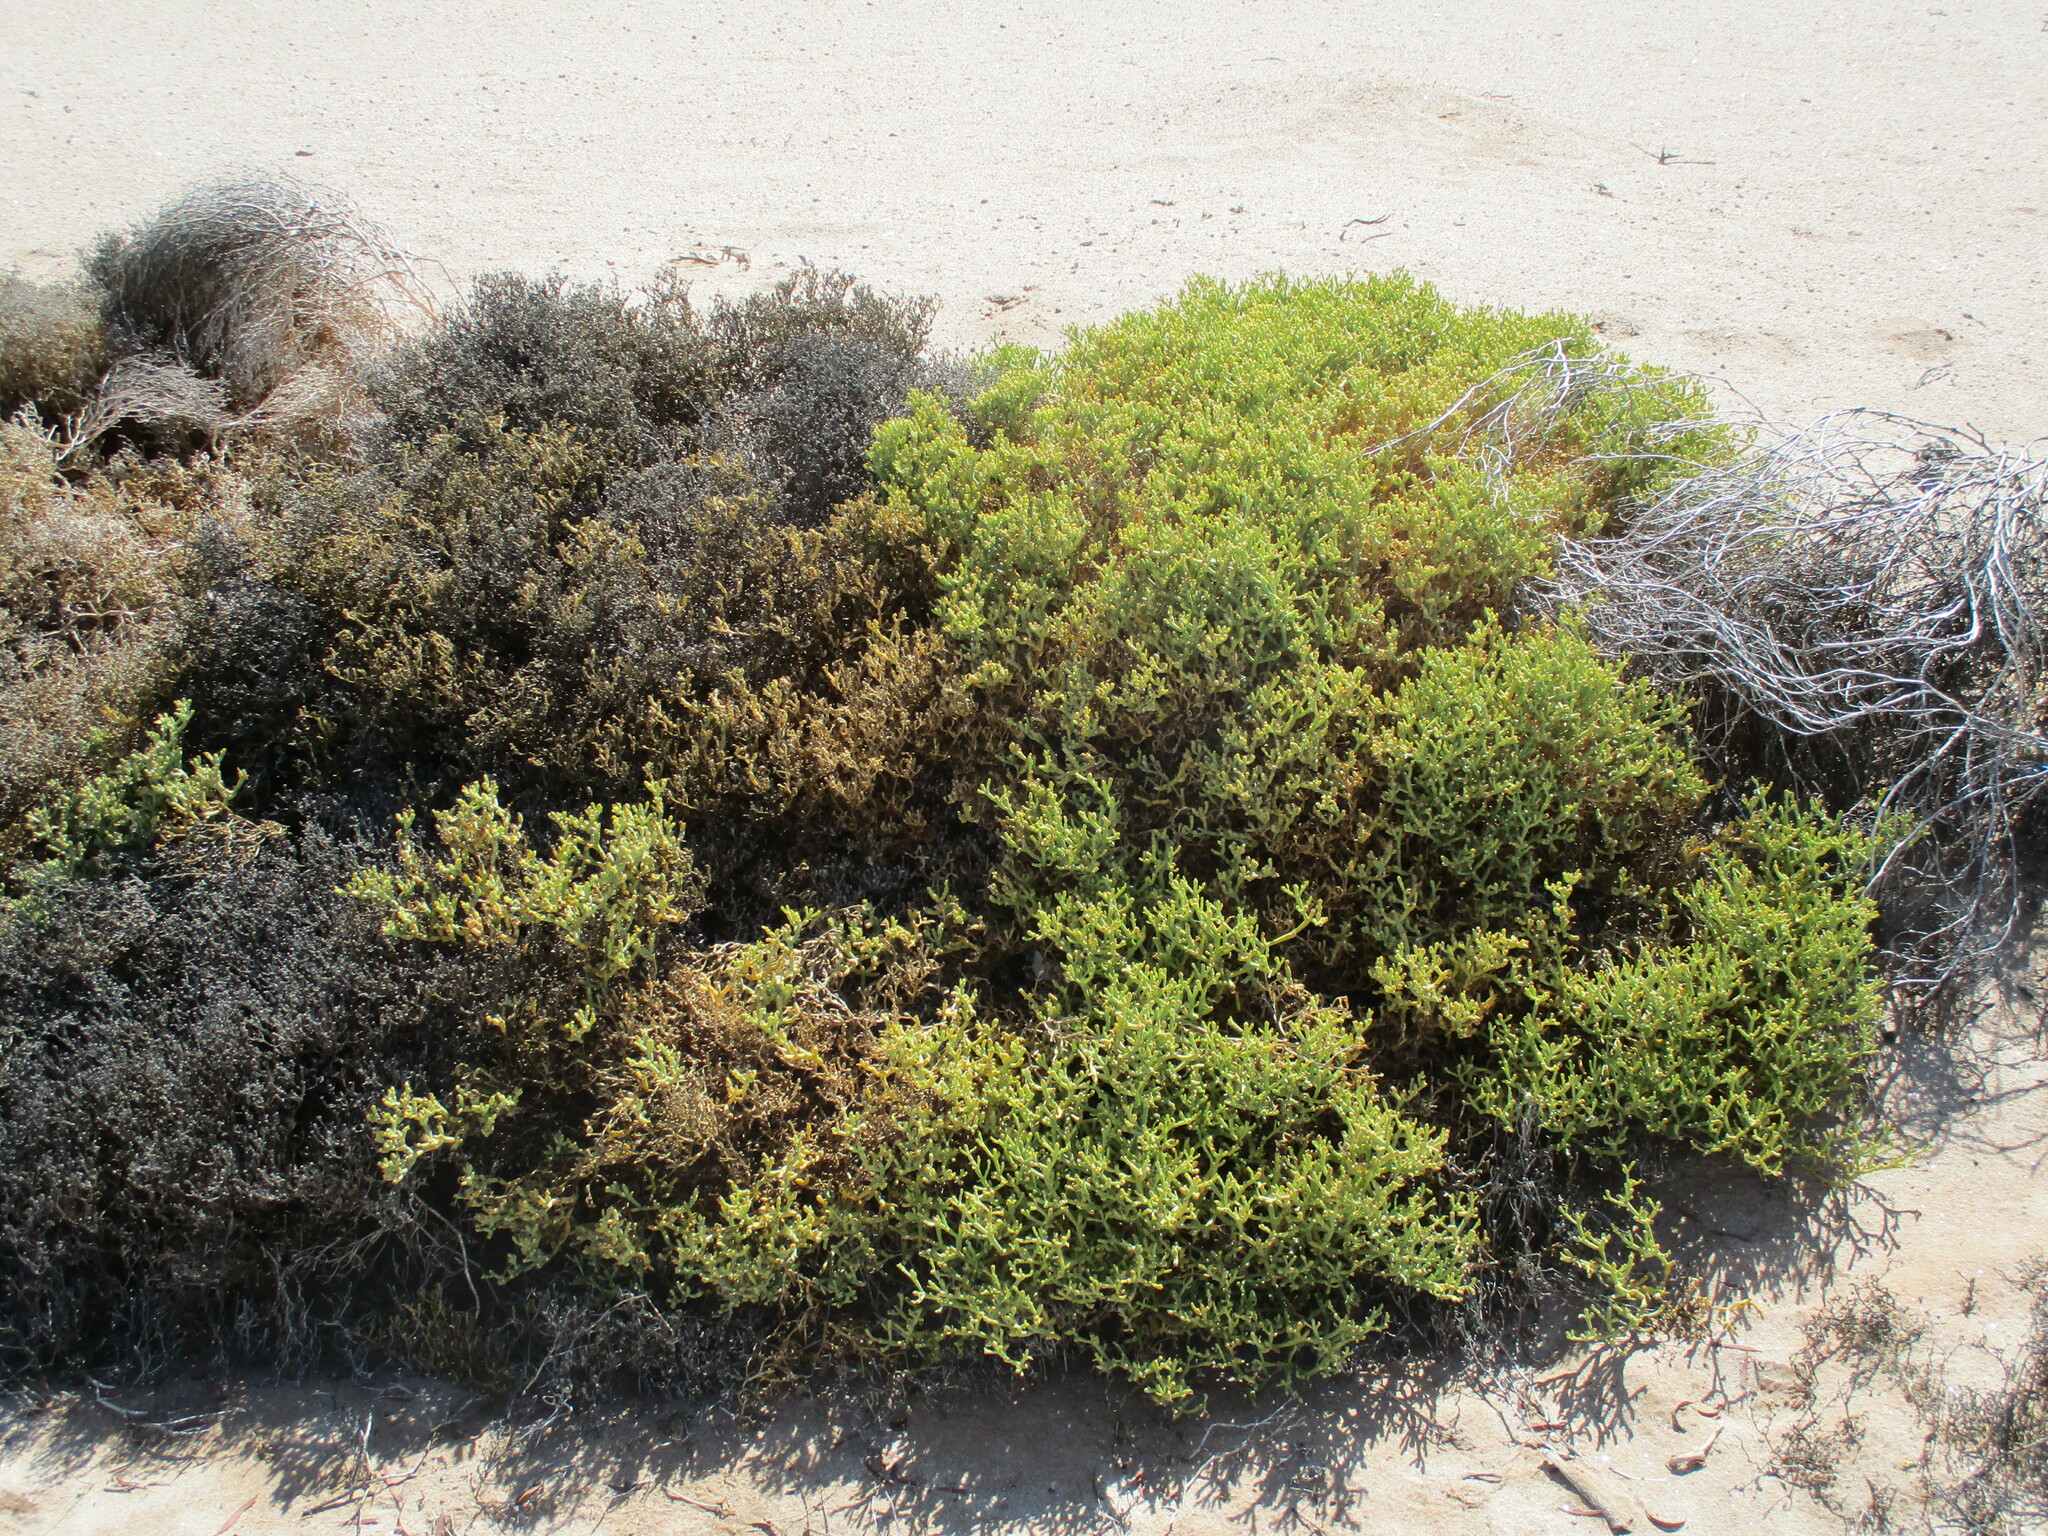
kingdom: Plantae
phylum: Tracheophyta
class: Magnoliopsida
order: Caryophyllales
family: Aizoaceae
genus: Mesembryanthemum
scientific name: Mesembryanthemum salicornioides
